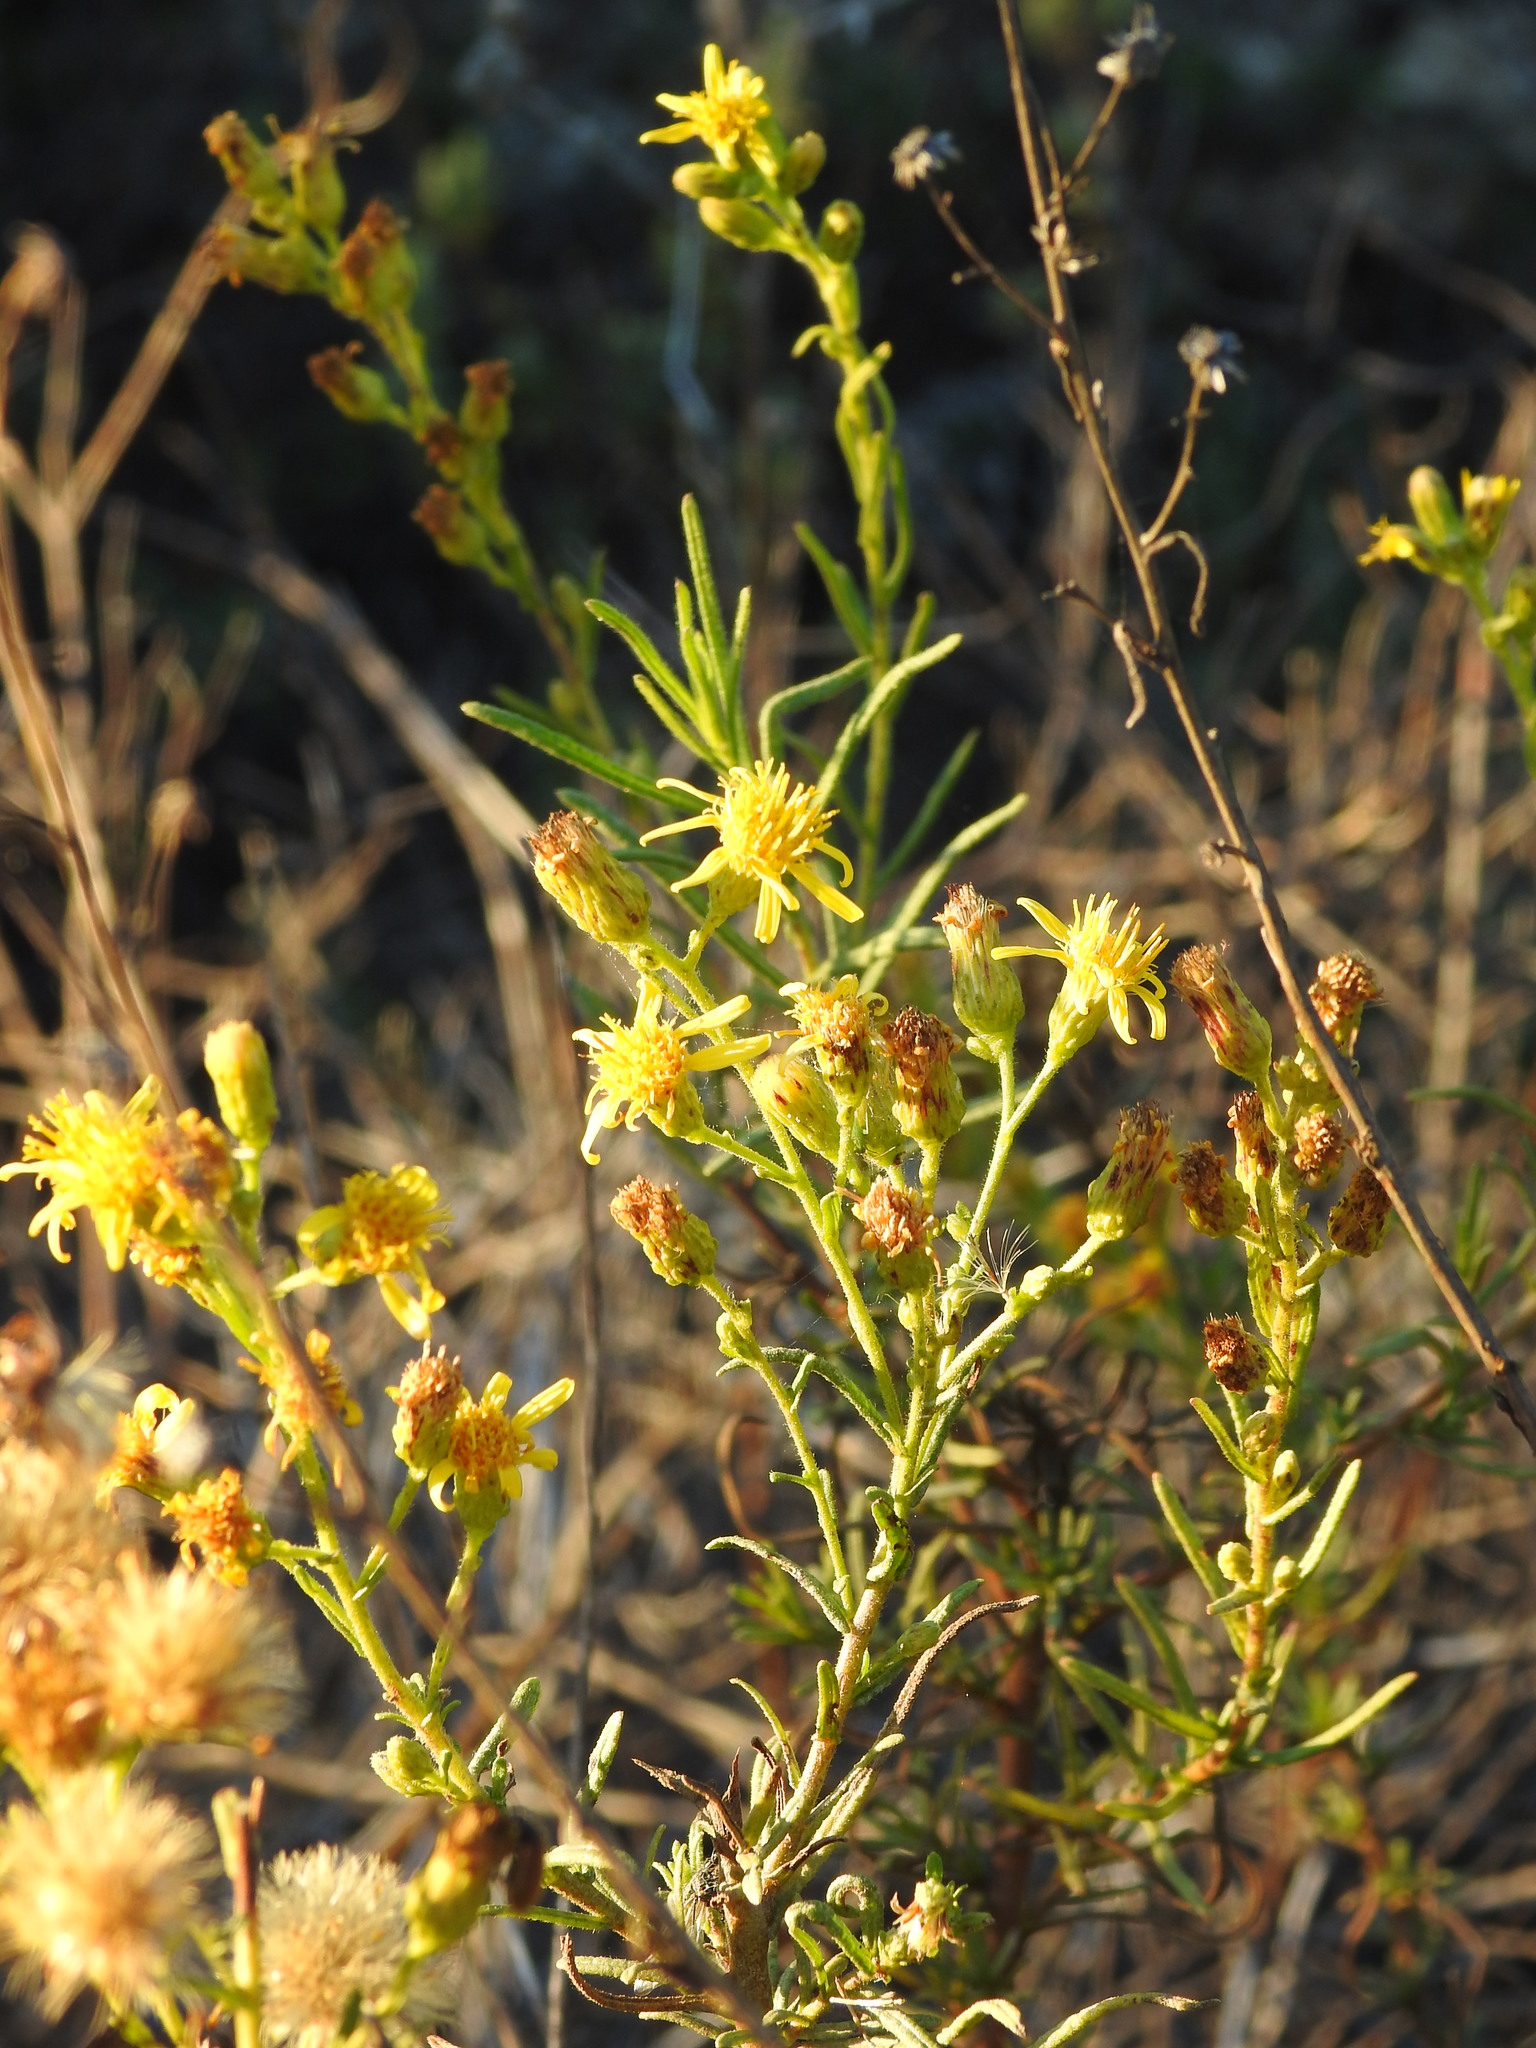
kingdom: Plantae
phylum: Tracheophyta
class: Magnoliopsida
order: Asterales
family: Asteraceae
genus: Dittrichia
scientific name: Dittrichia viscosa
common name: Woody fleabane
